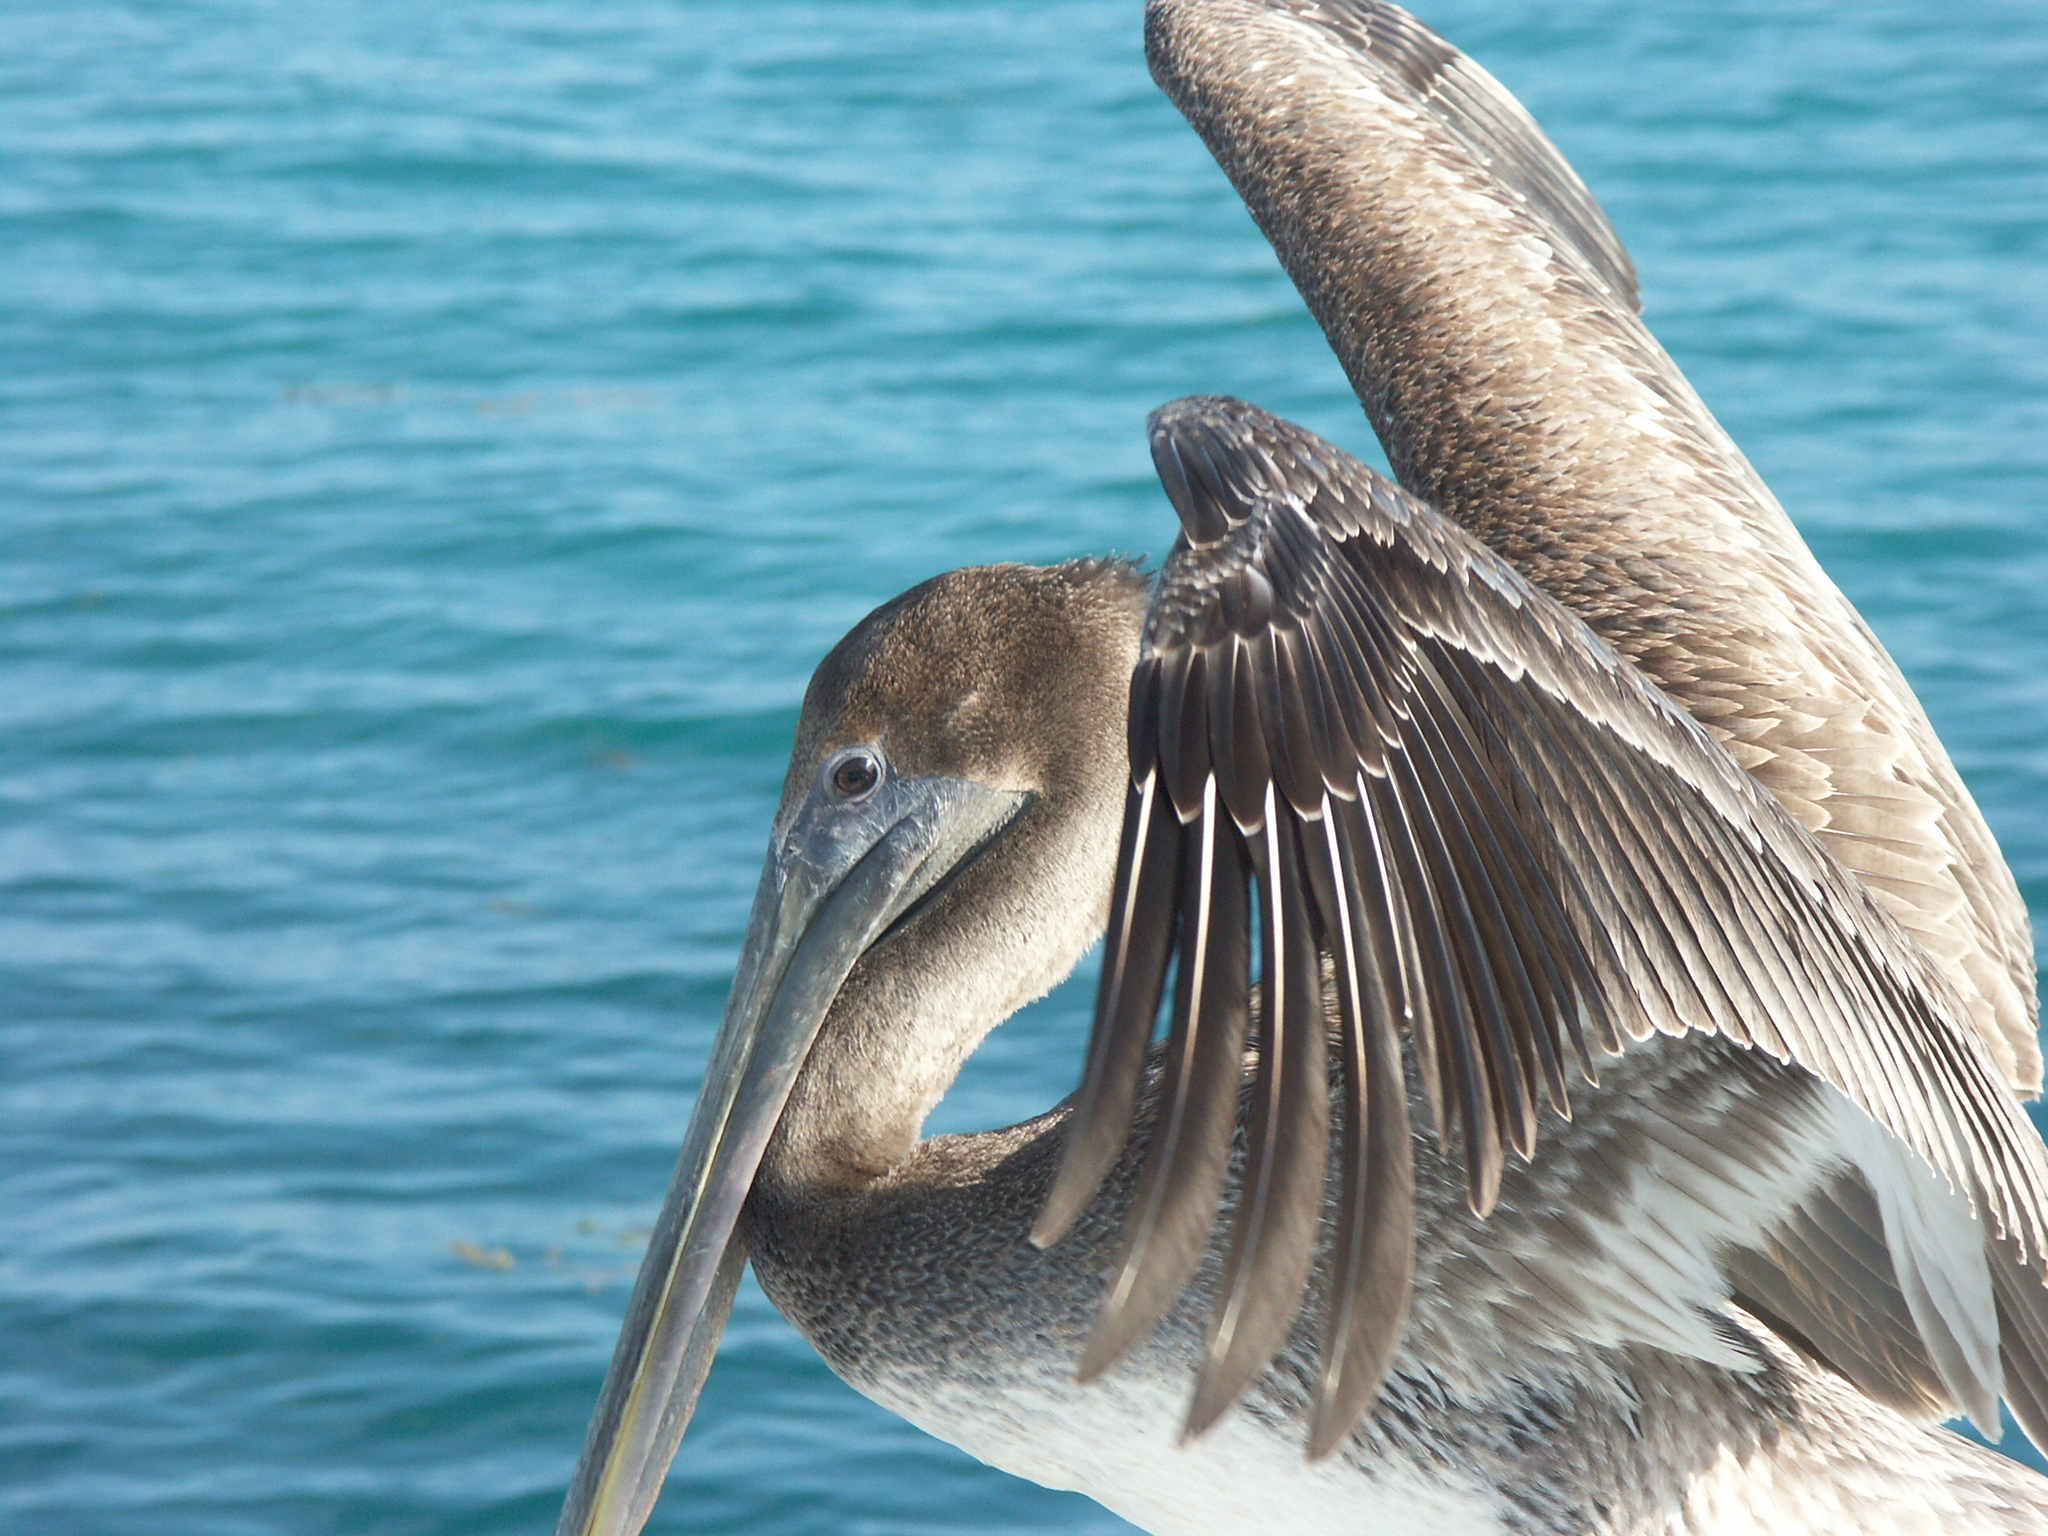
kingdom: Animalia
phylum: Chordata
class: Aves
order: Pelecaniformes
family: Pelecanidae
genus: Pelecanus
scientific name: Pelecanus occidentalis
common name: Brown pelican
